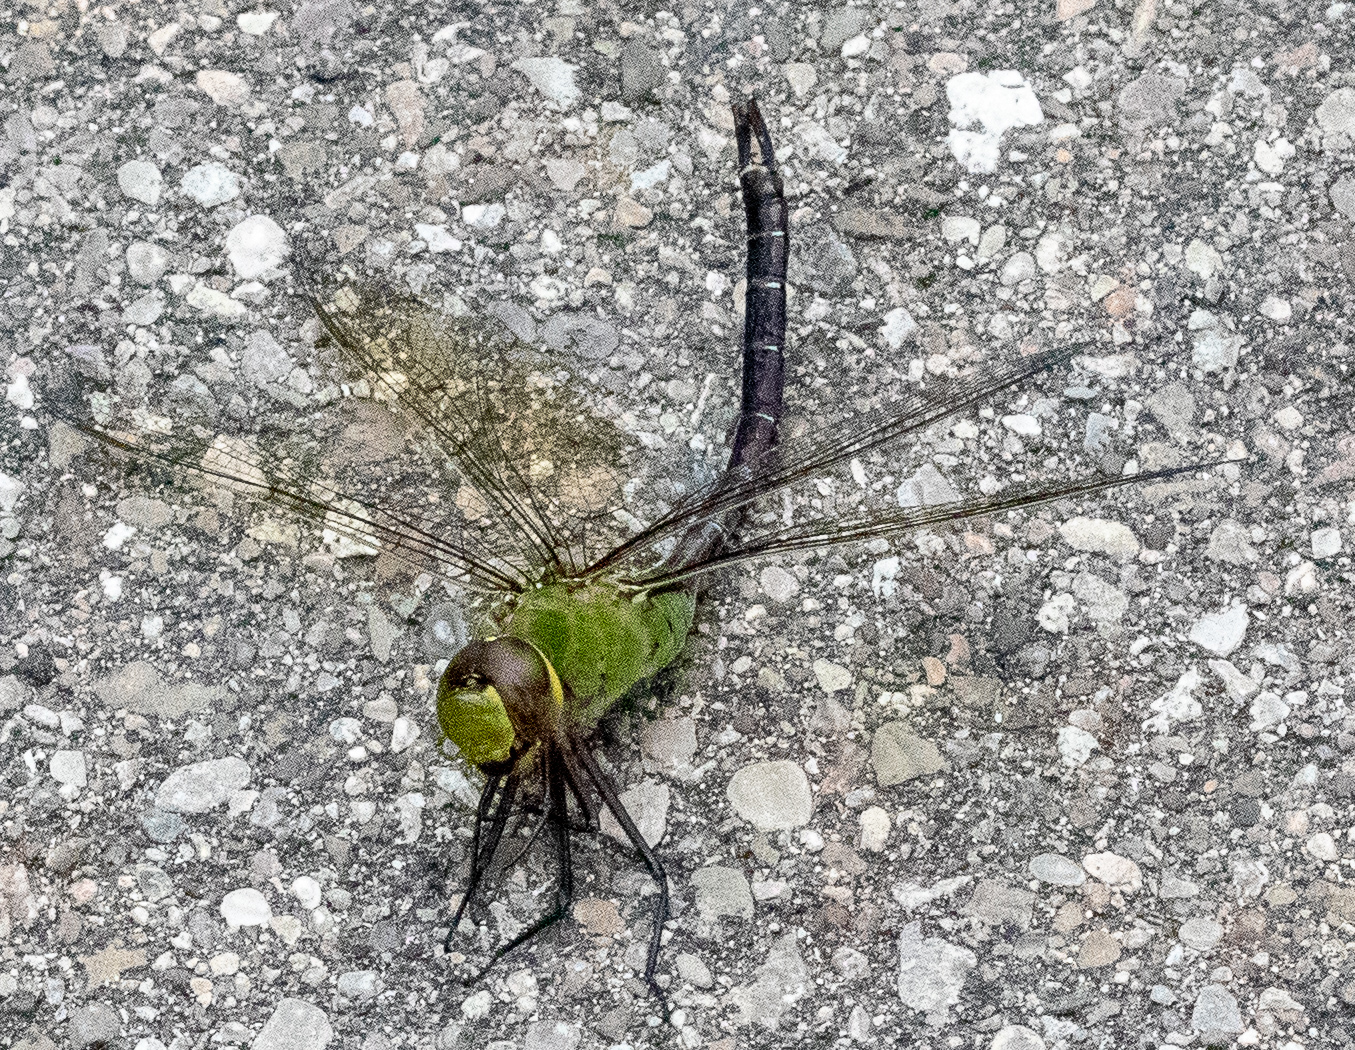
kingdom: Animalia
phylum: Arthropoda
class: Insecta
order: Odonata
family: Aeshnidae
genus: Anax
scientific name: Anax junius
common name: Common green darner
